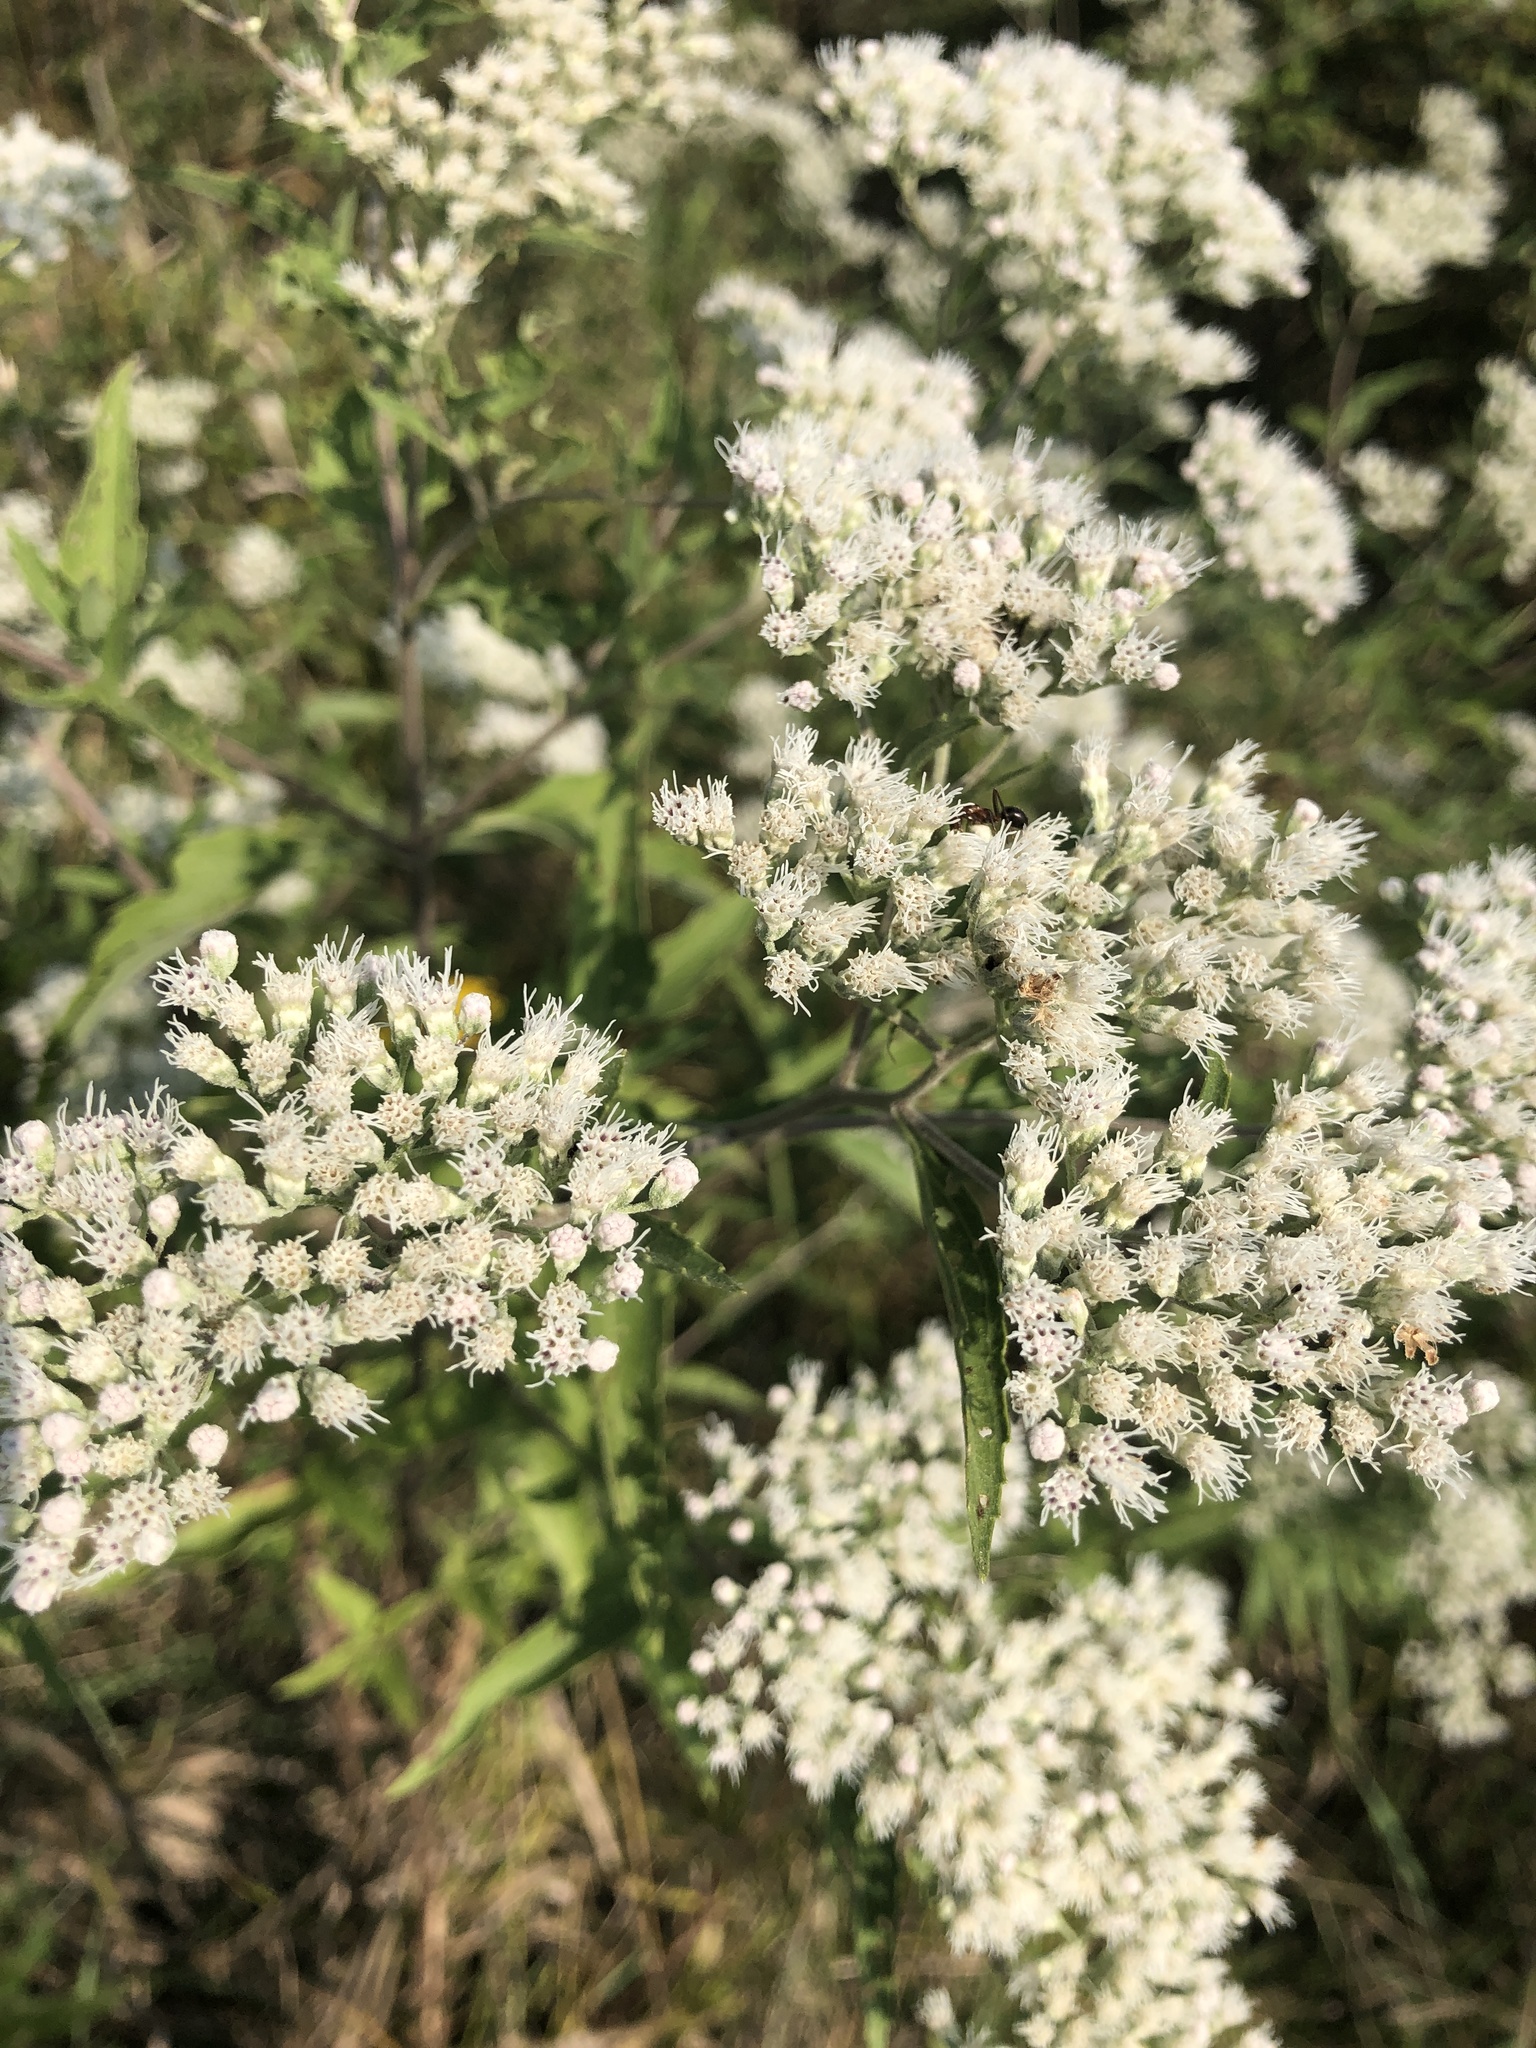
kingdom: Plantae
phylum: Tracheophyta
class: Magnoliopsida
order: Asterales
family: Asteraceae
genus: Eupatorium
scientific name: Eupatorium serotinum
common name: Late boneset
